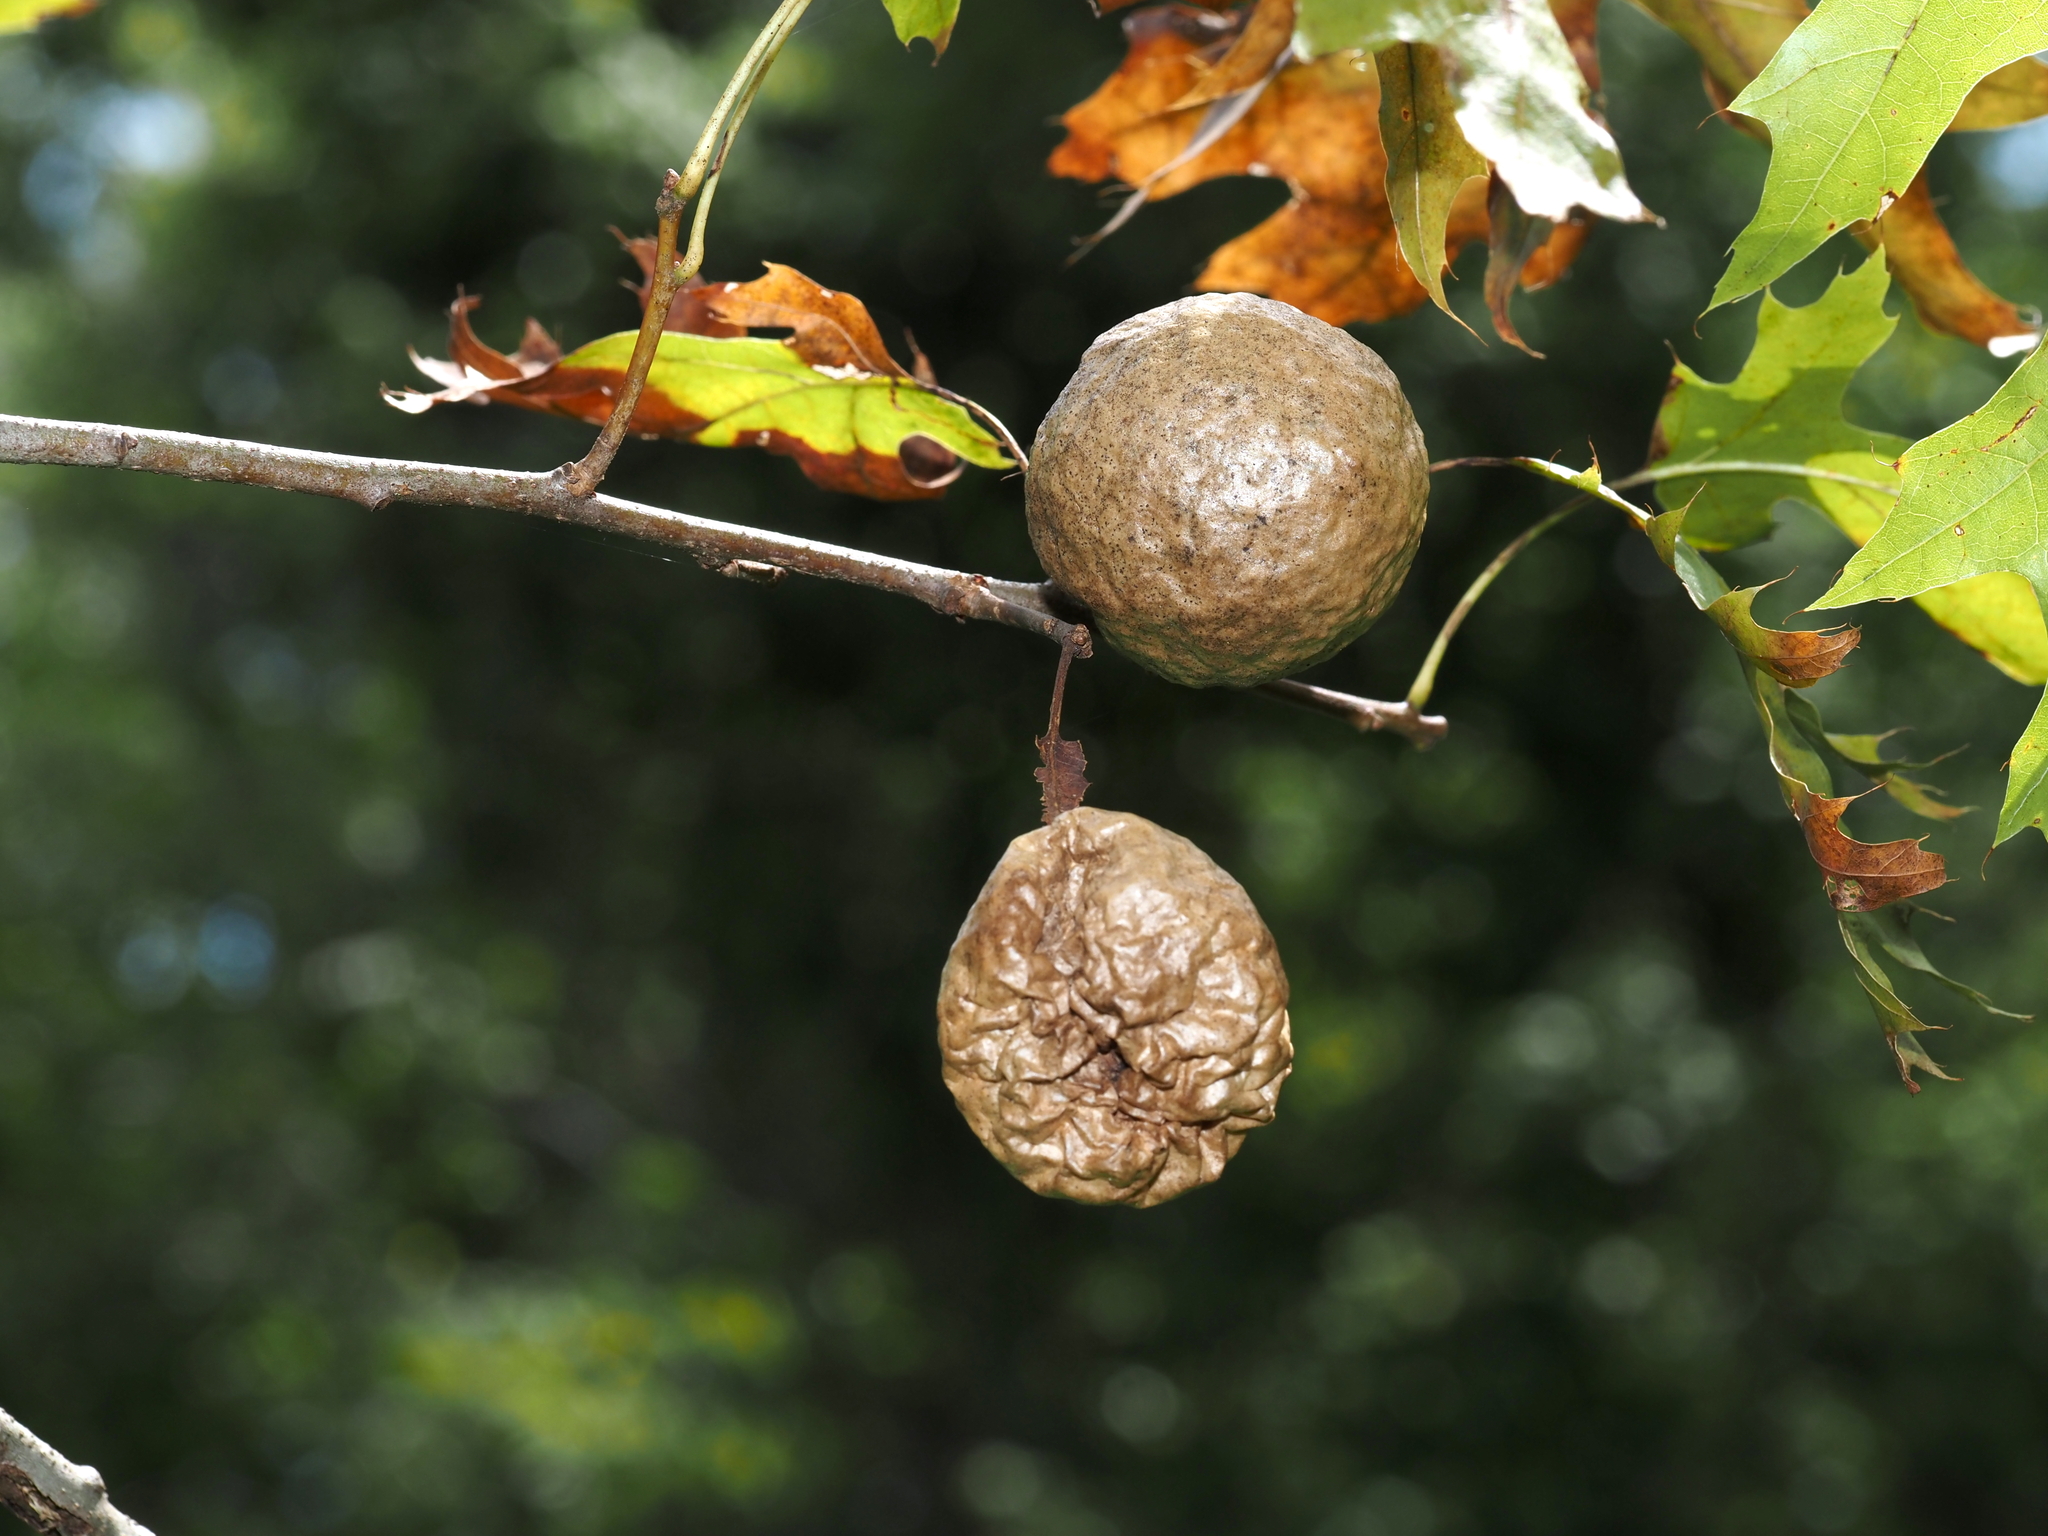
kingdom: Animalia
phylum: Arthropoda
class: Insecta
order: Hymenoptera
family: Cynipidae
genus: Amphibolips
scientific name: Amphibolips
